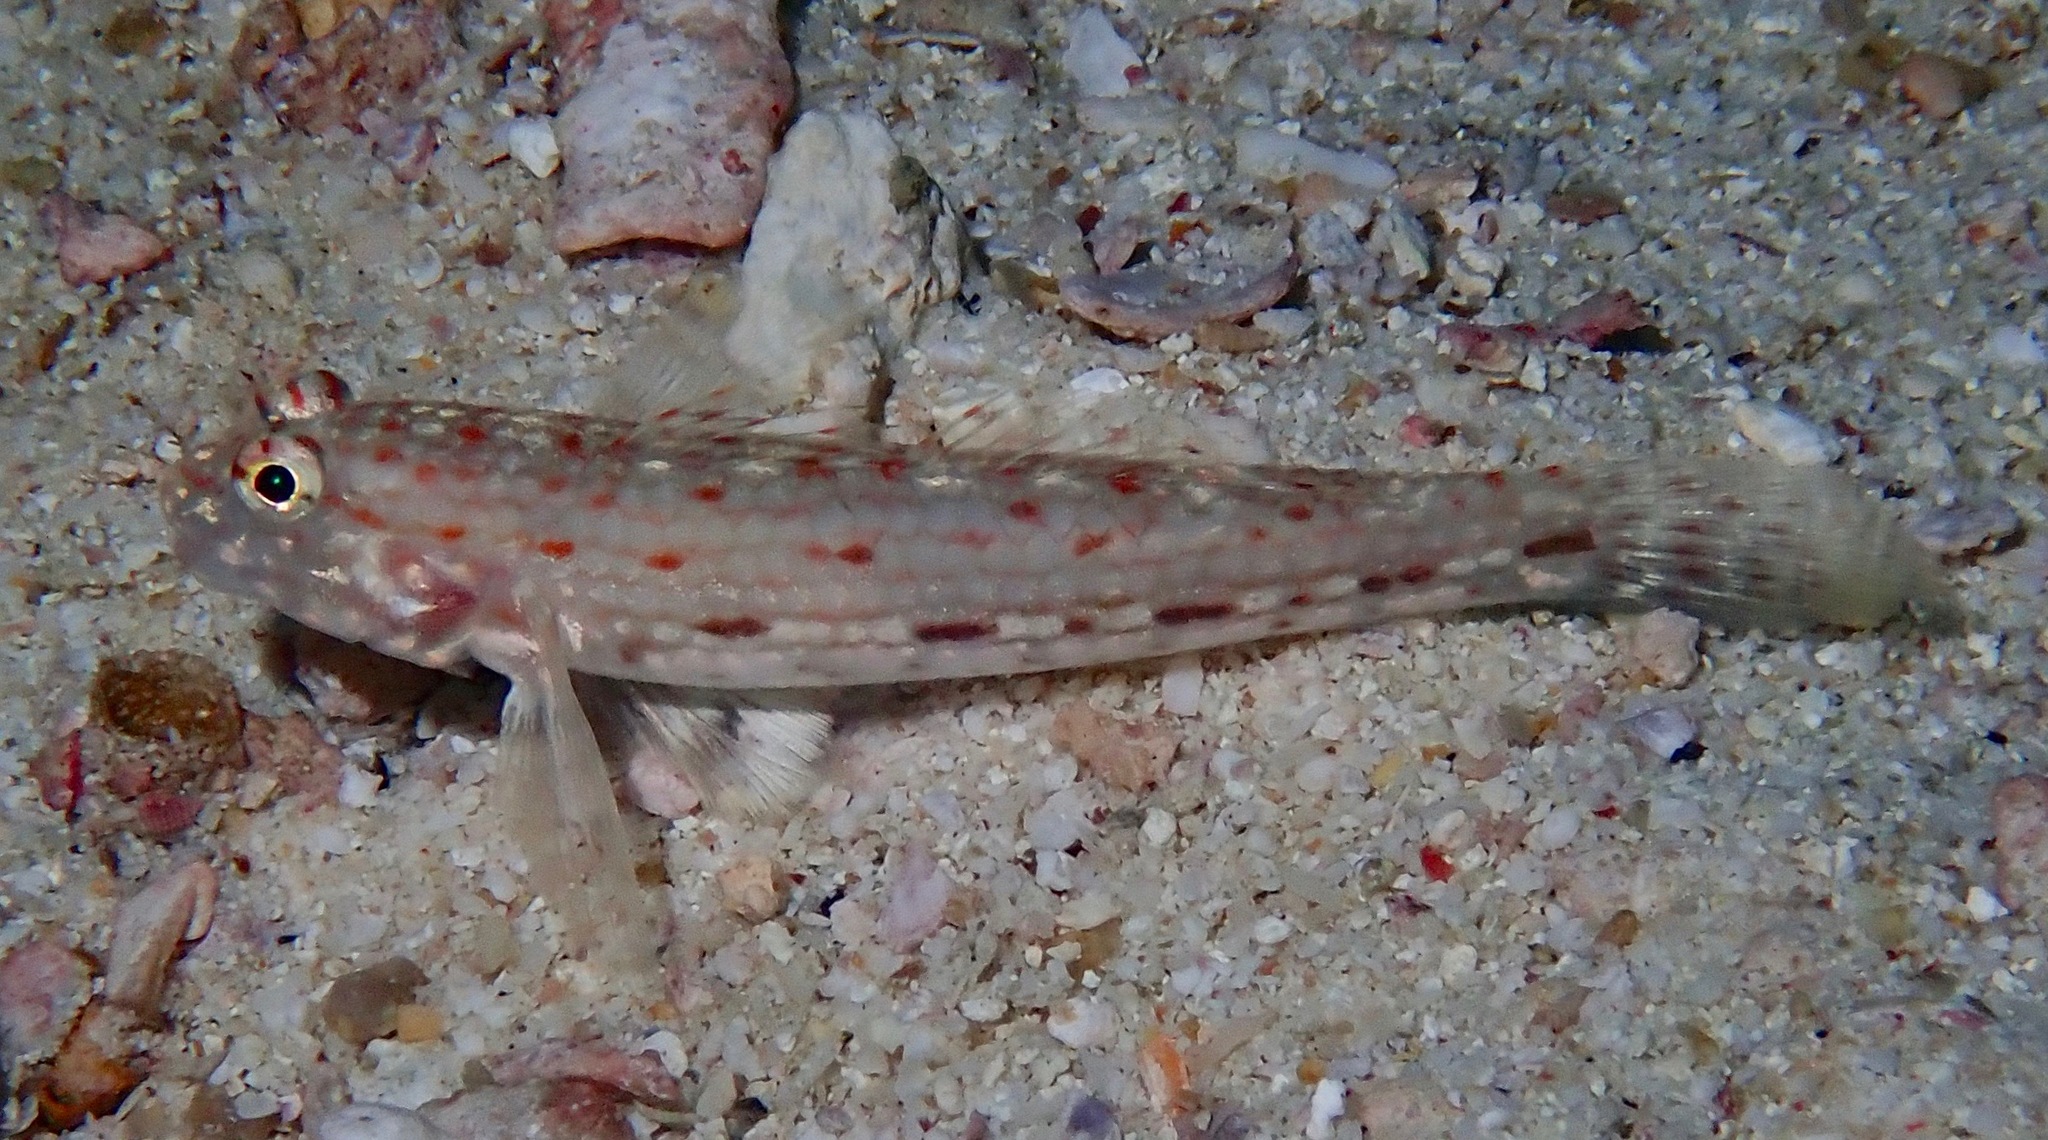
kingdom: Animalia
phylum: Chordata
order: Perciformes
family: Gobiidae
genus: Istigobius
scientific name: Istigobius decoratus
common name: Decorated goby
